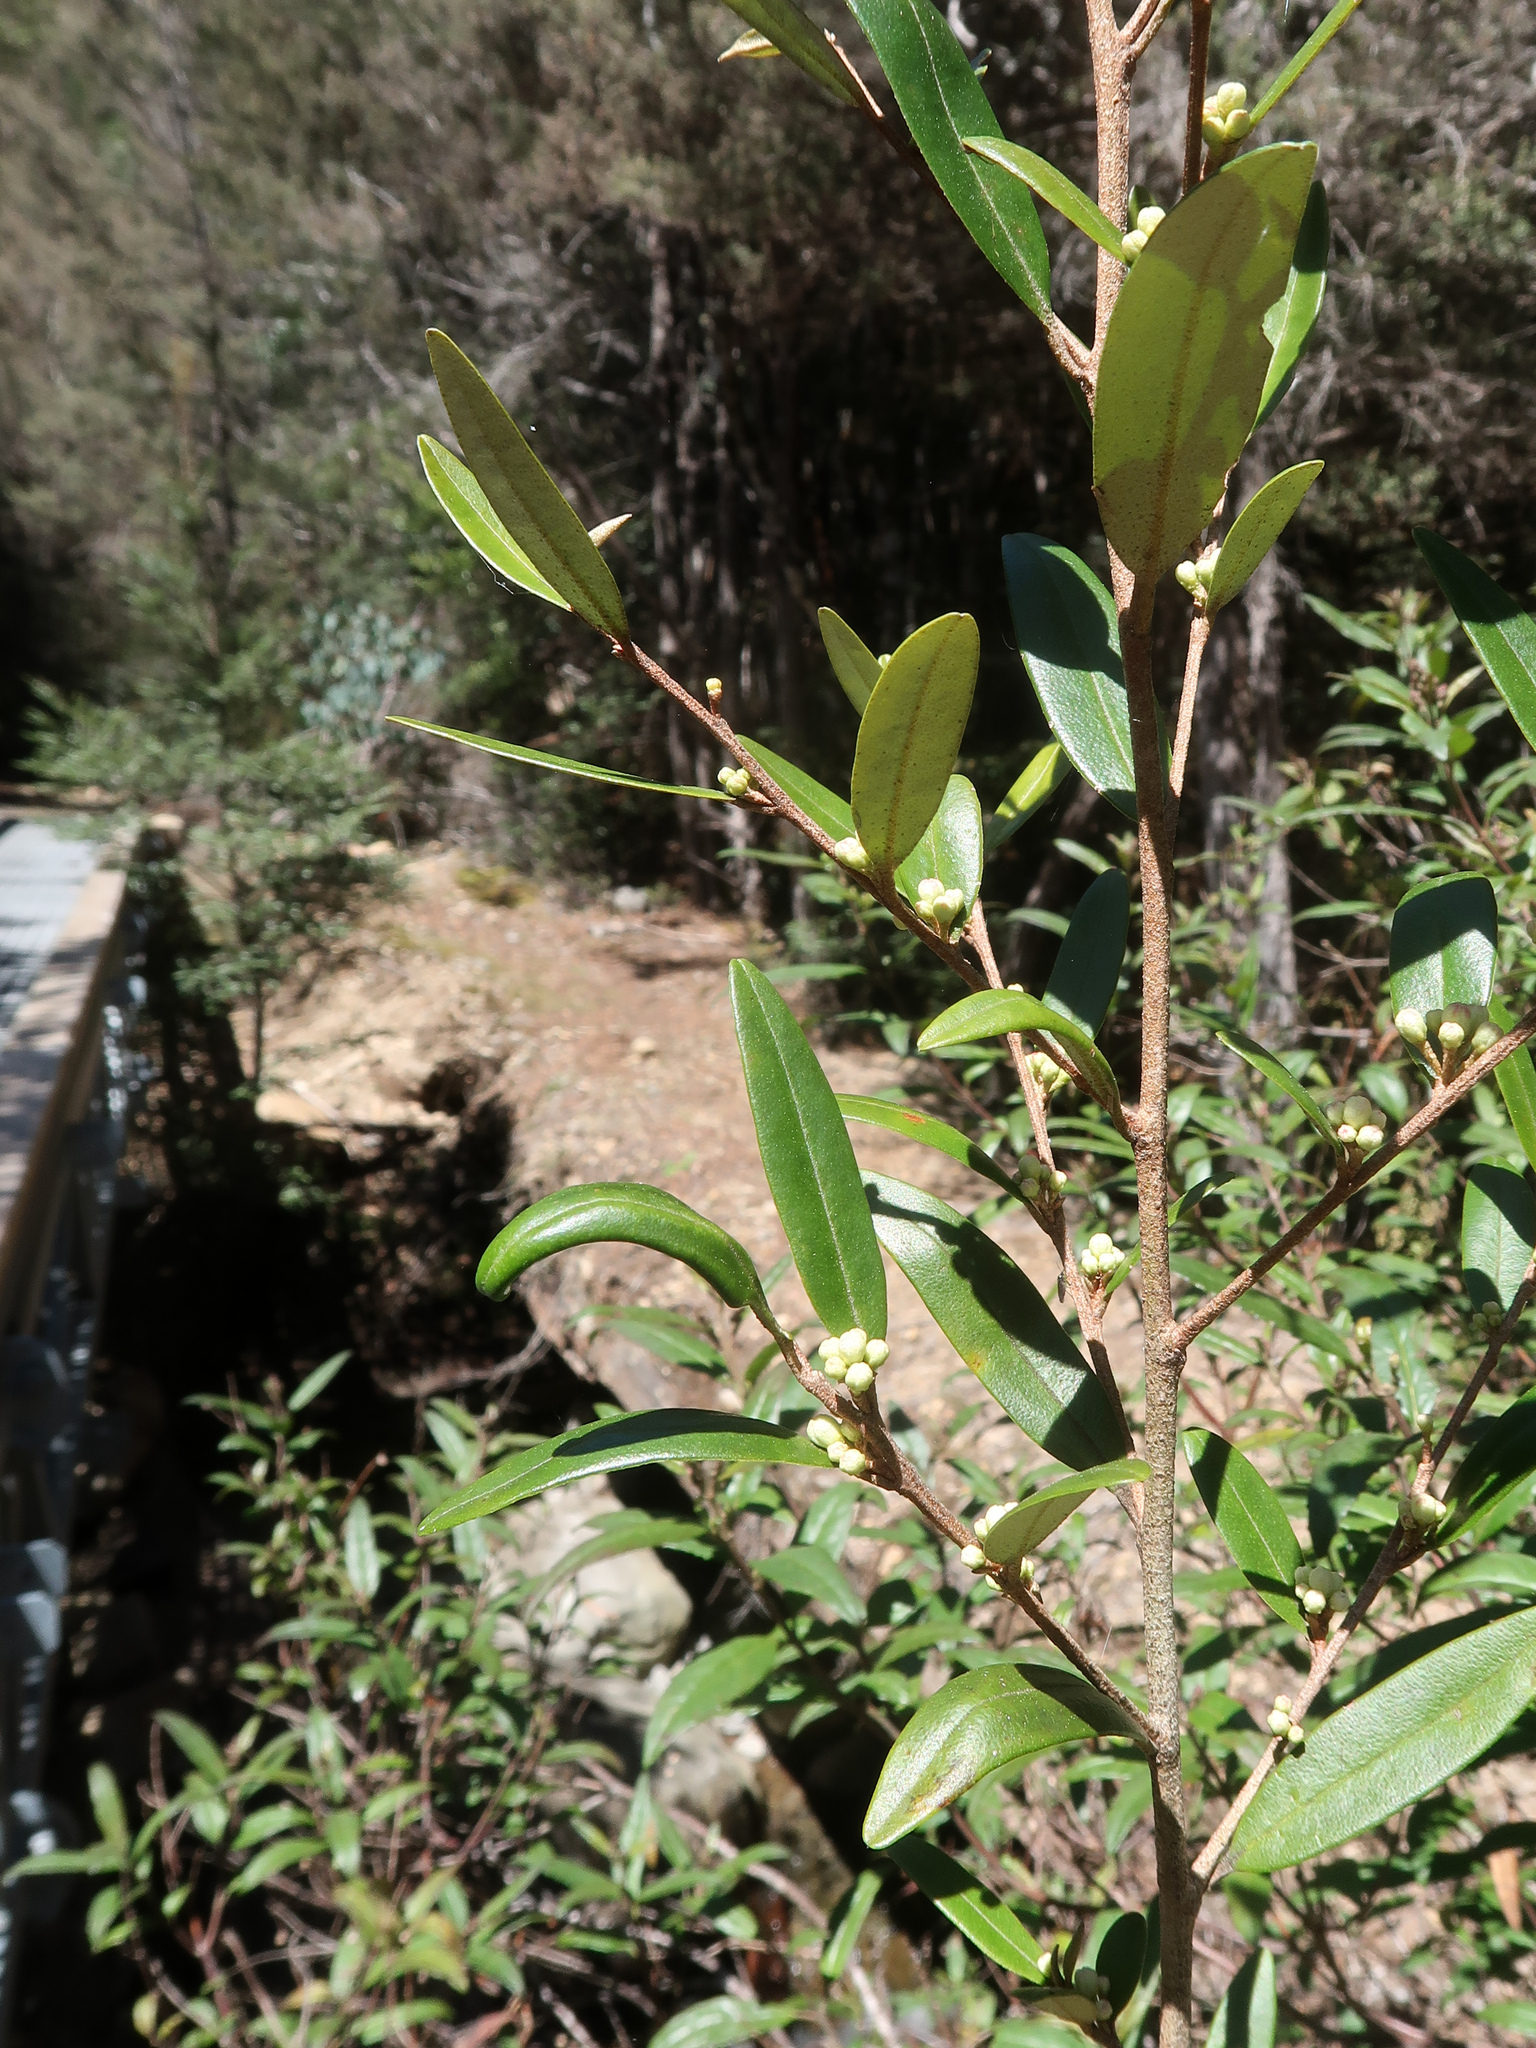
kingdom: Plantae
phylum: Tracheophyta
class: Magnoliopsida
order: Sapindales
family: Rutaceae
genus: Nematolepis
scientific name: Nematolepis squamea
